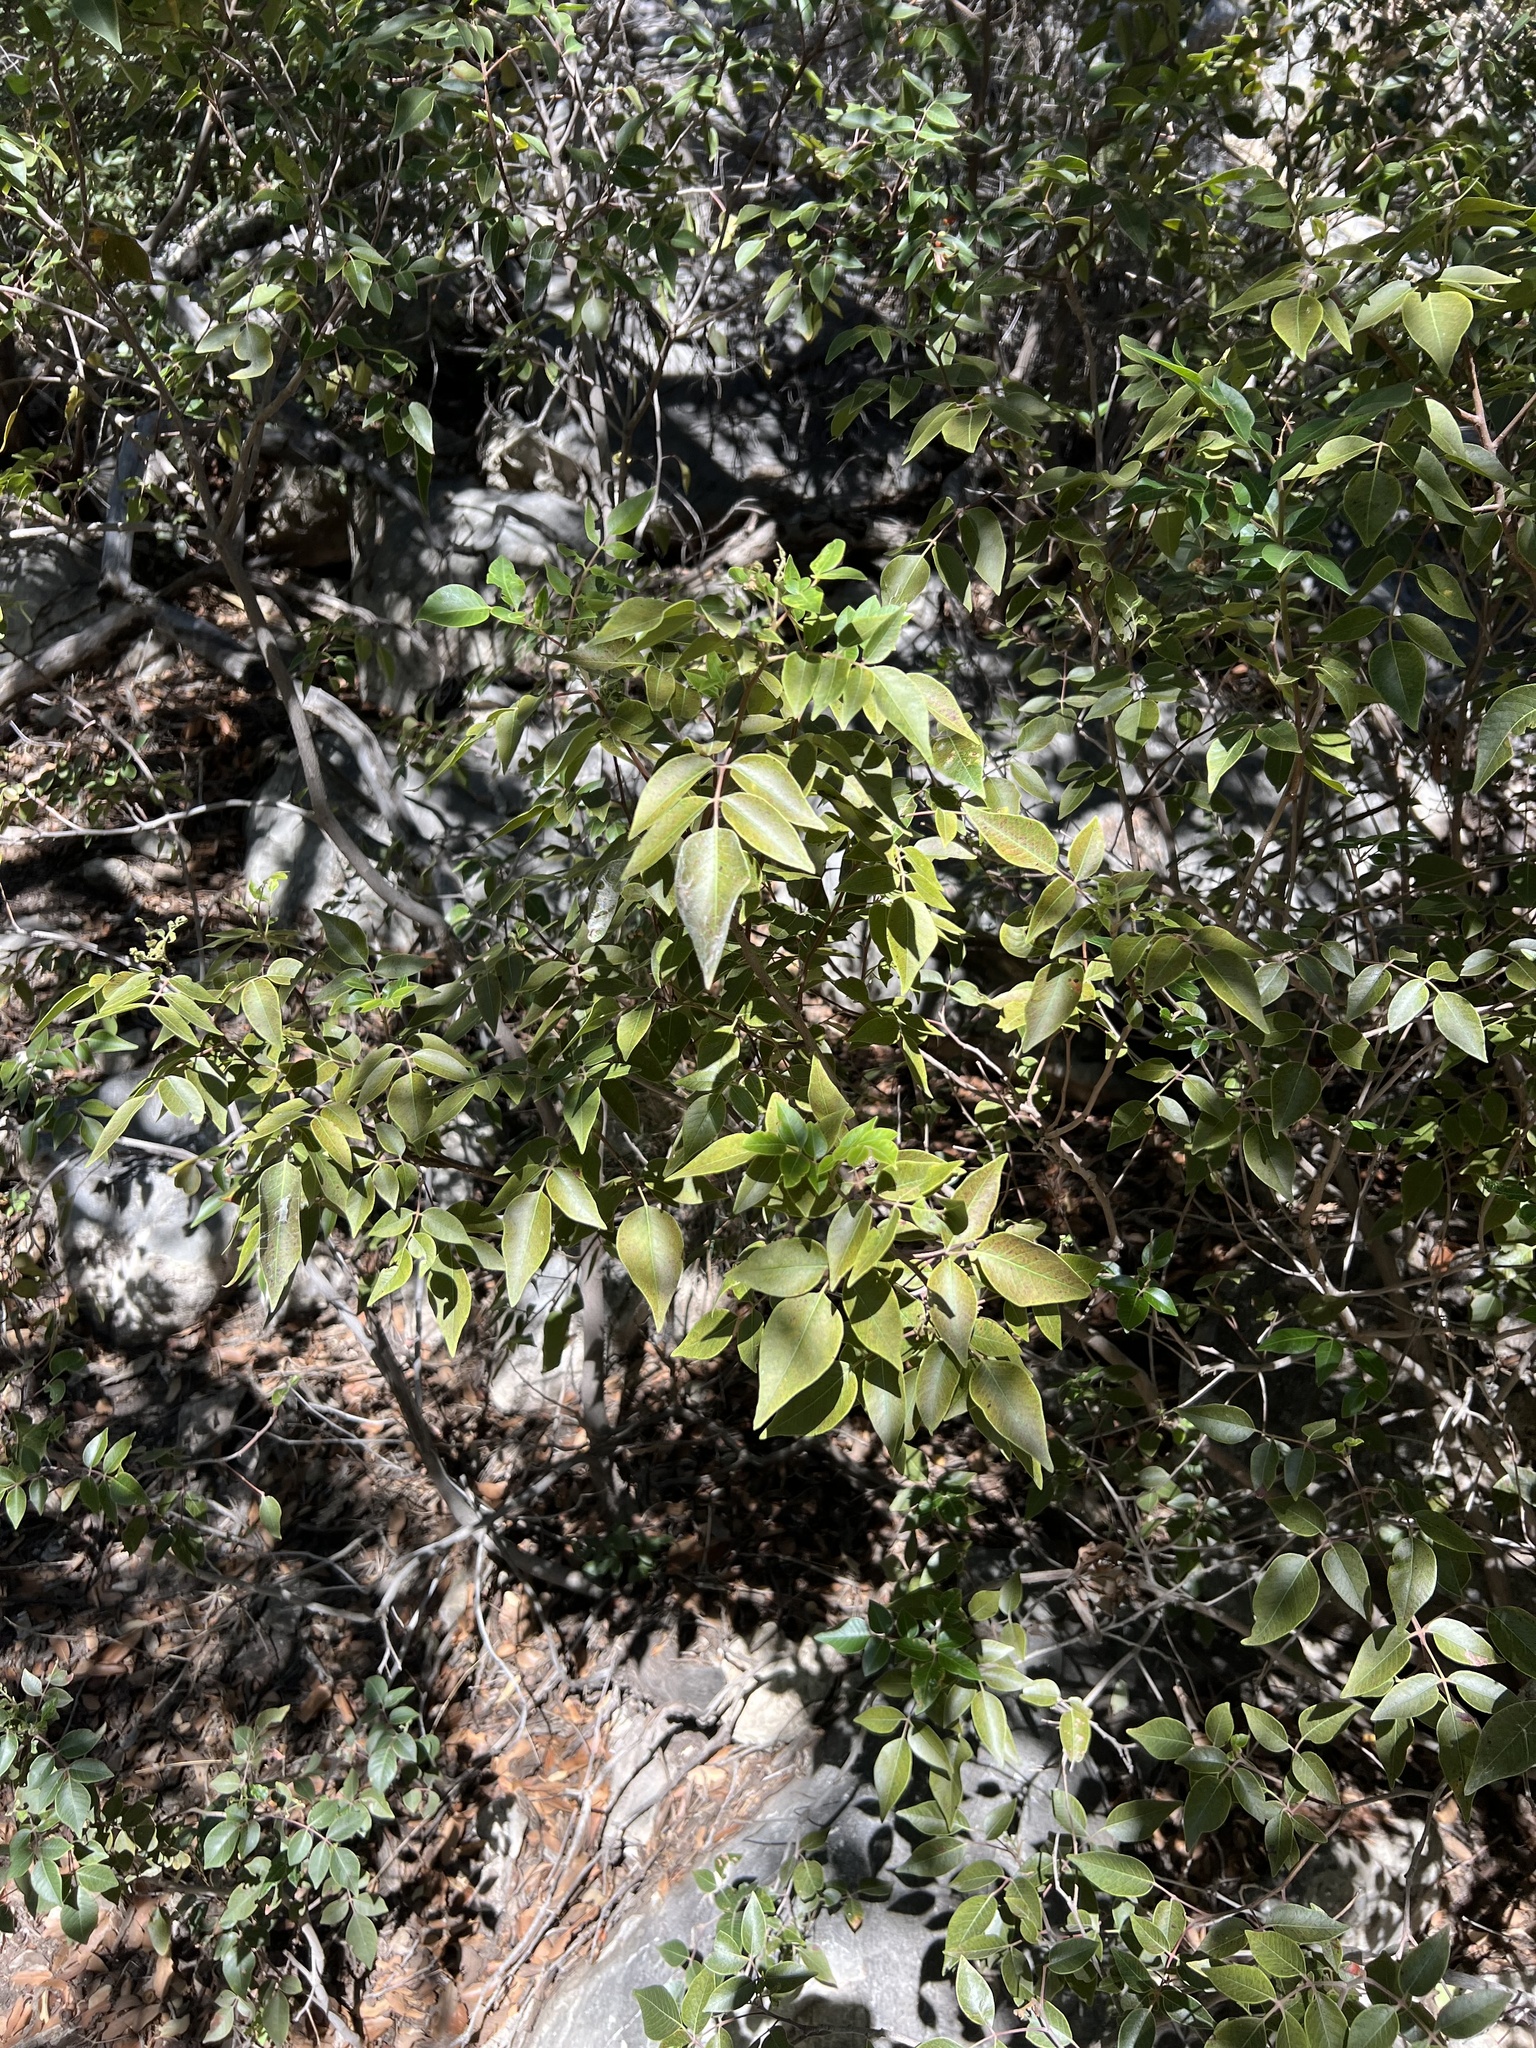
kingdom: Plantae
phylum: Tracheophyta
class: Magnoliopsida
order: Sapindales
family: Anacardiaceae
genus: Rhus
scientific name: Rhus virens
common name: Evergreen sumac
